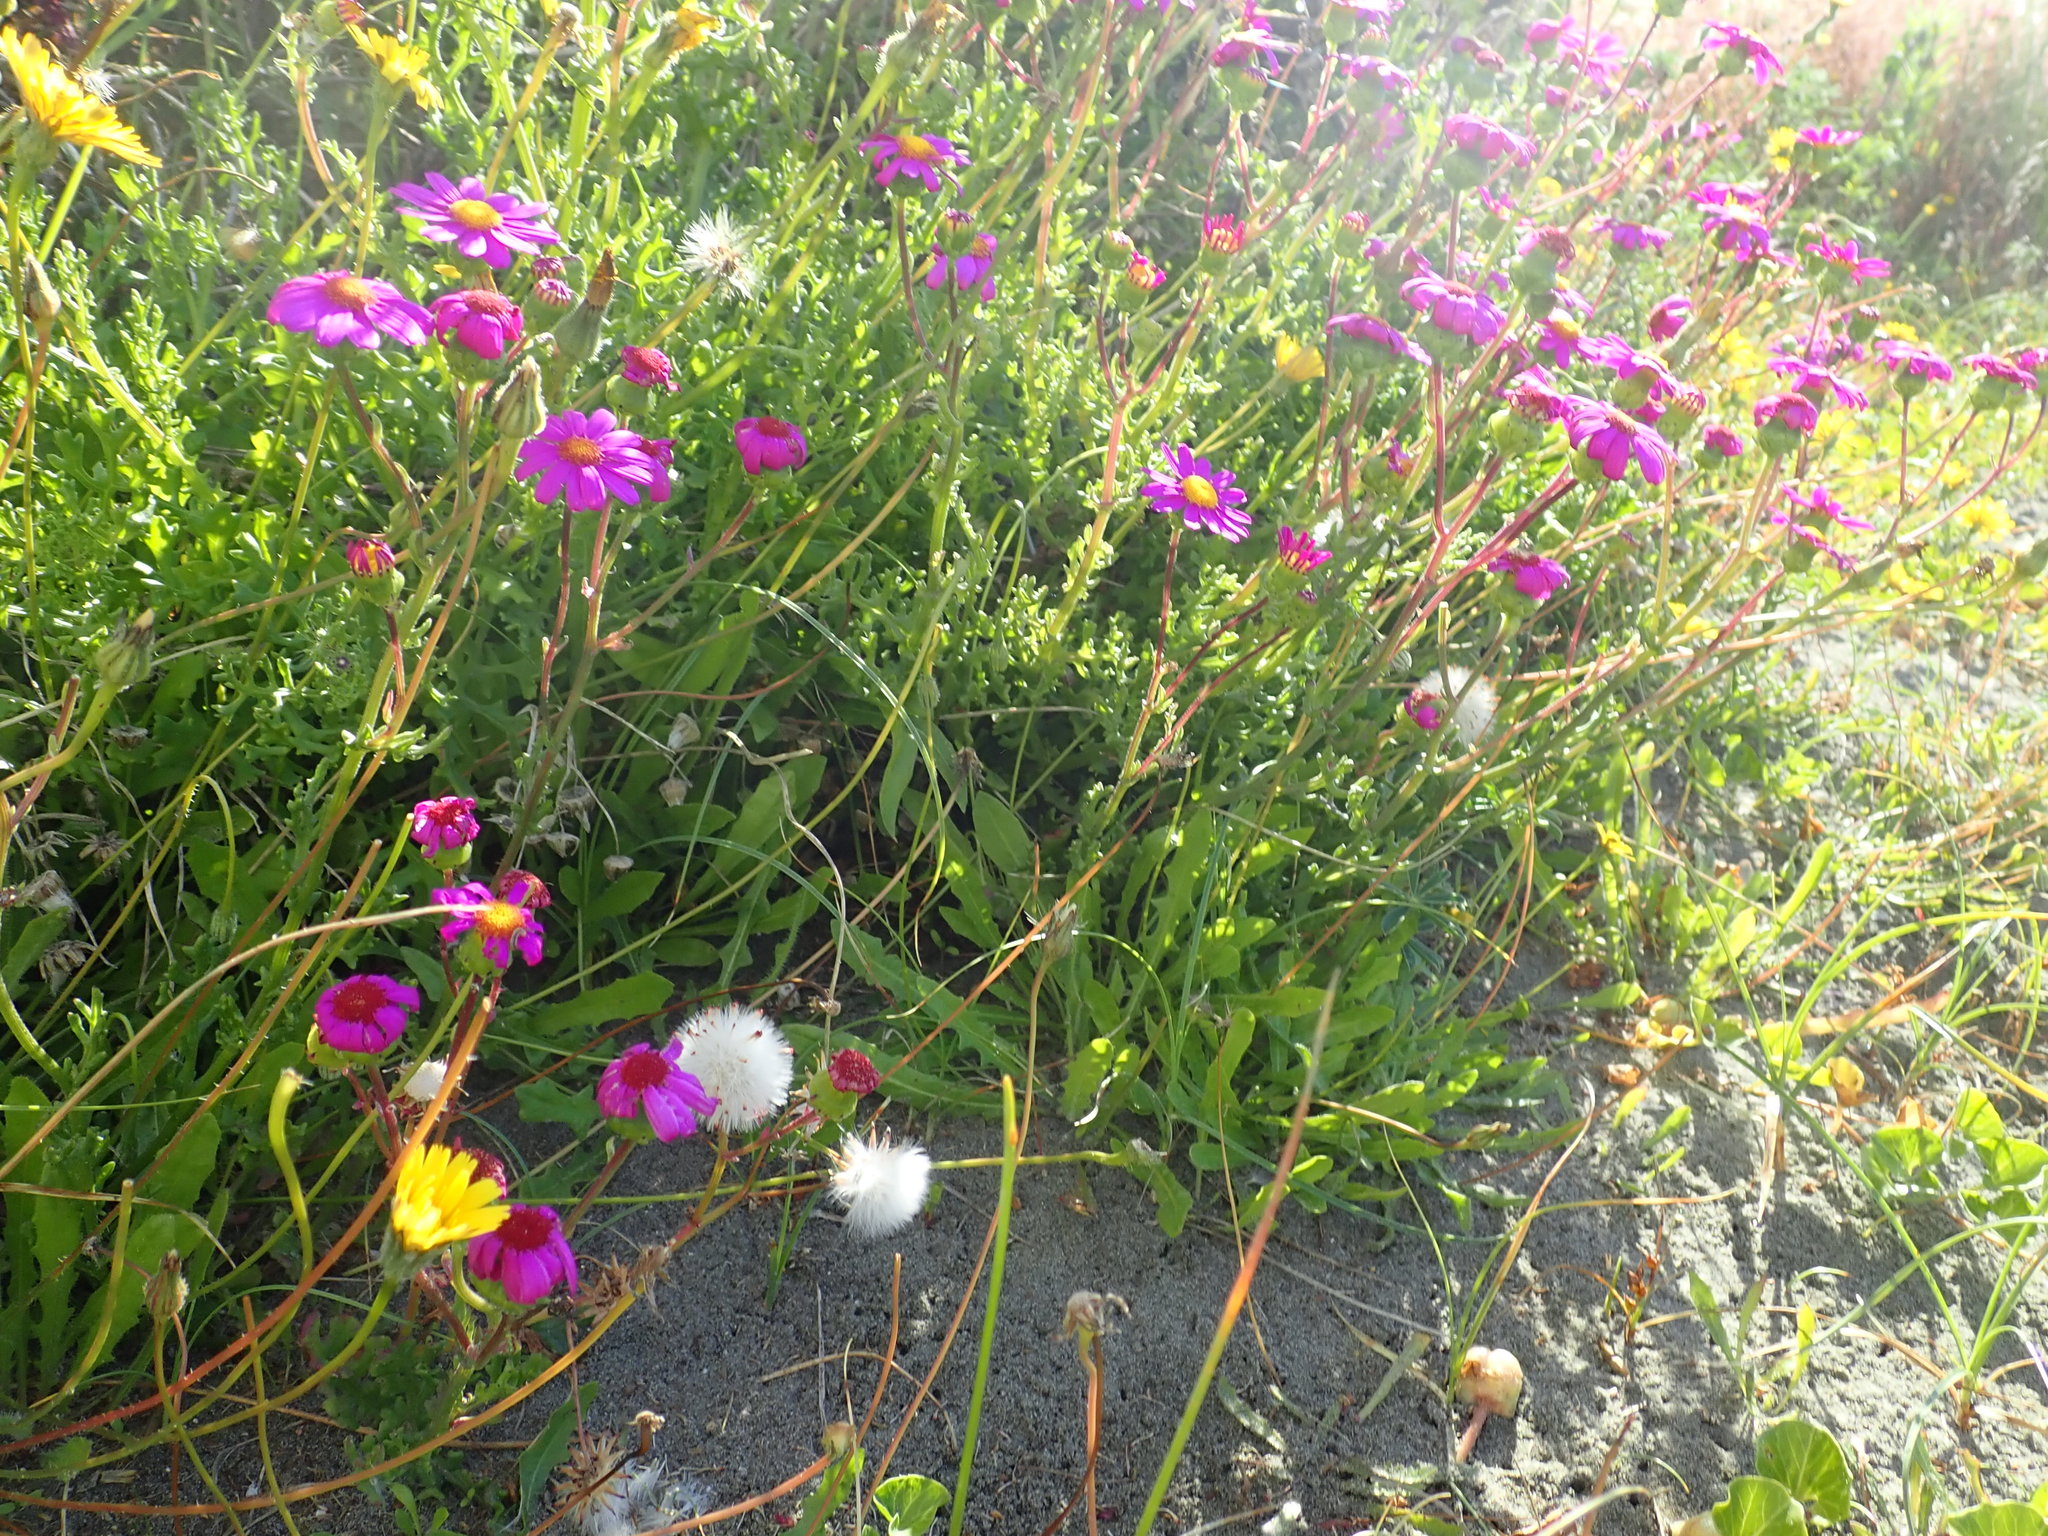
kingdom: Plantae
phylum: Tracheophyta
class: Magnoliopsida
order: Asterales
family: Asteraceae
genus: Senecio
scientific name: Senecio elegans
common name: Purple groundsel
